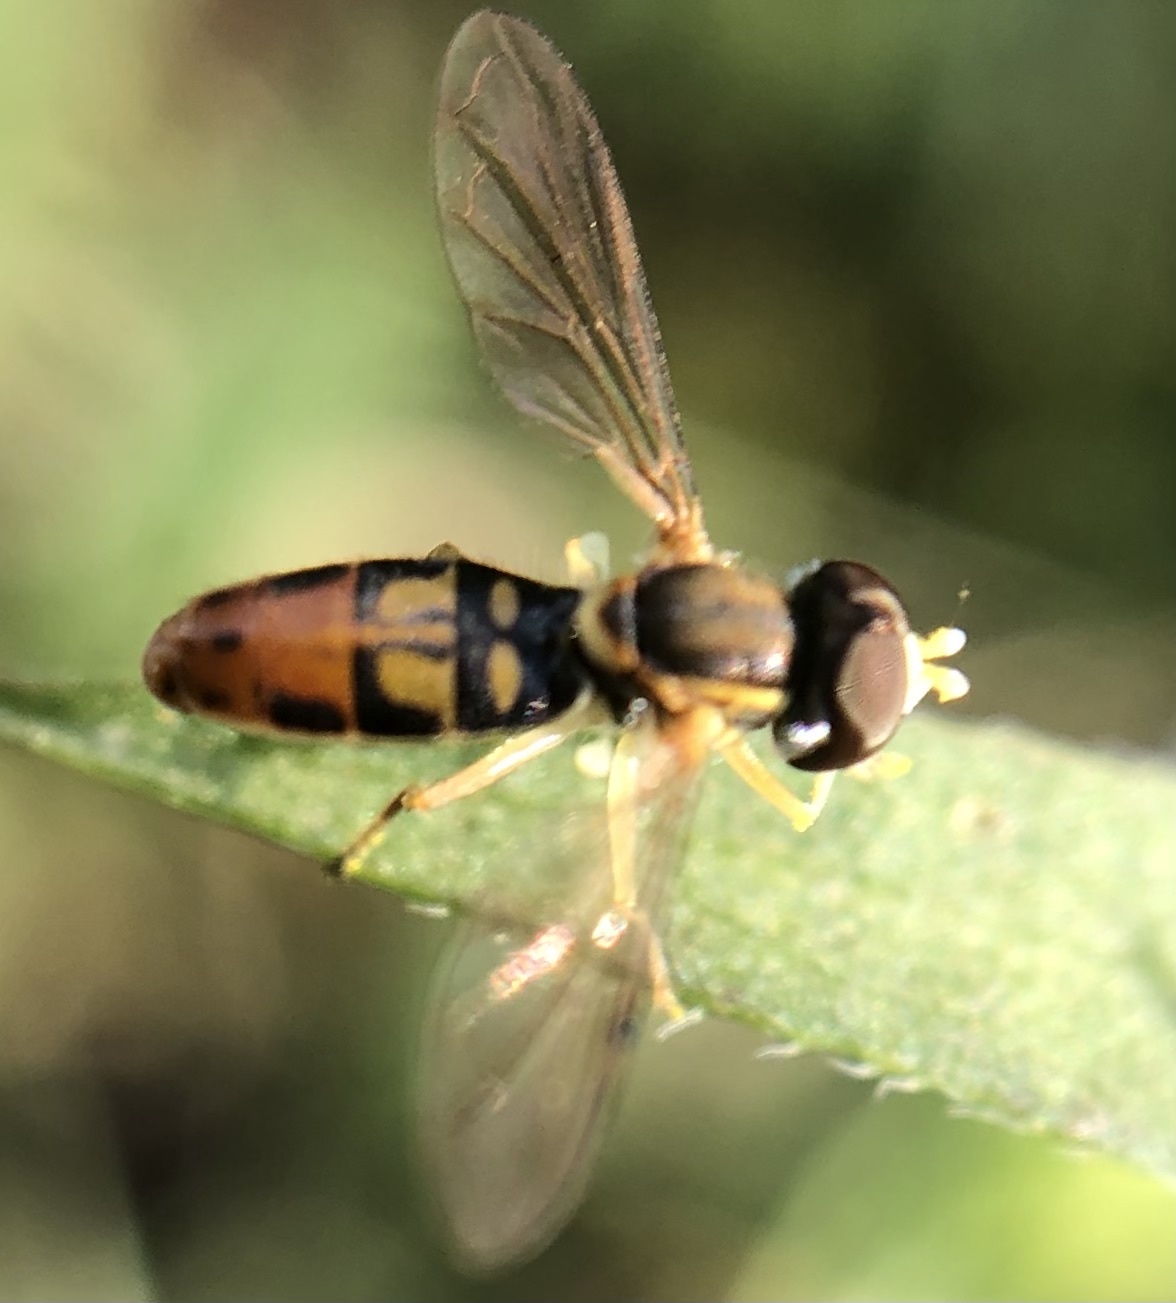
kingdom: Animalia
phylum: Arthropoda
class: Insecta
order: Diptera
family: Syrphidae
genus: Toxomerus
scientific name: Toxomerus marginatus
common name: Syrphid fly
